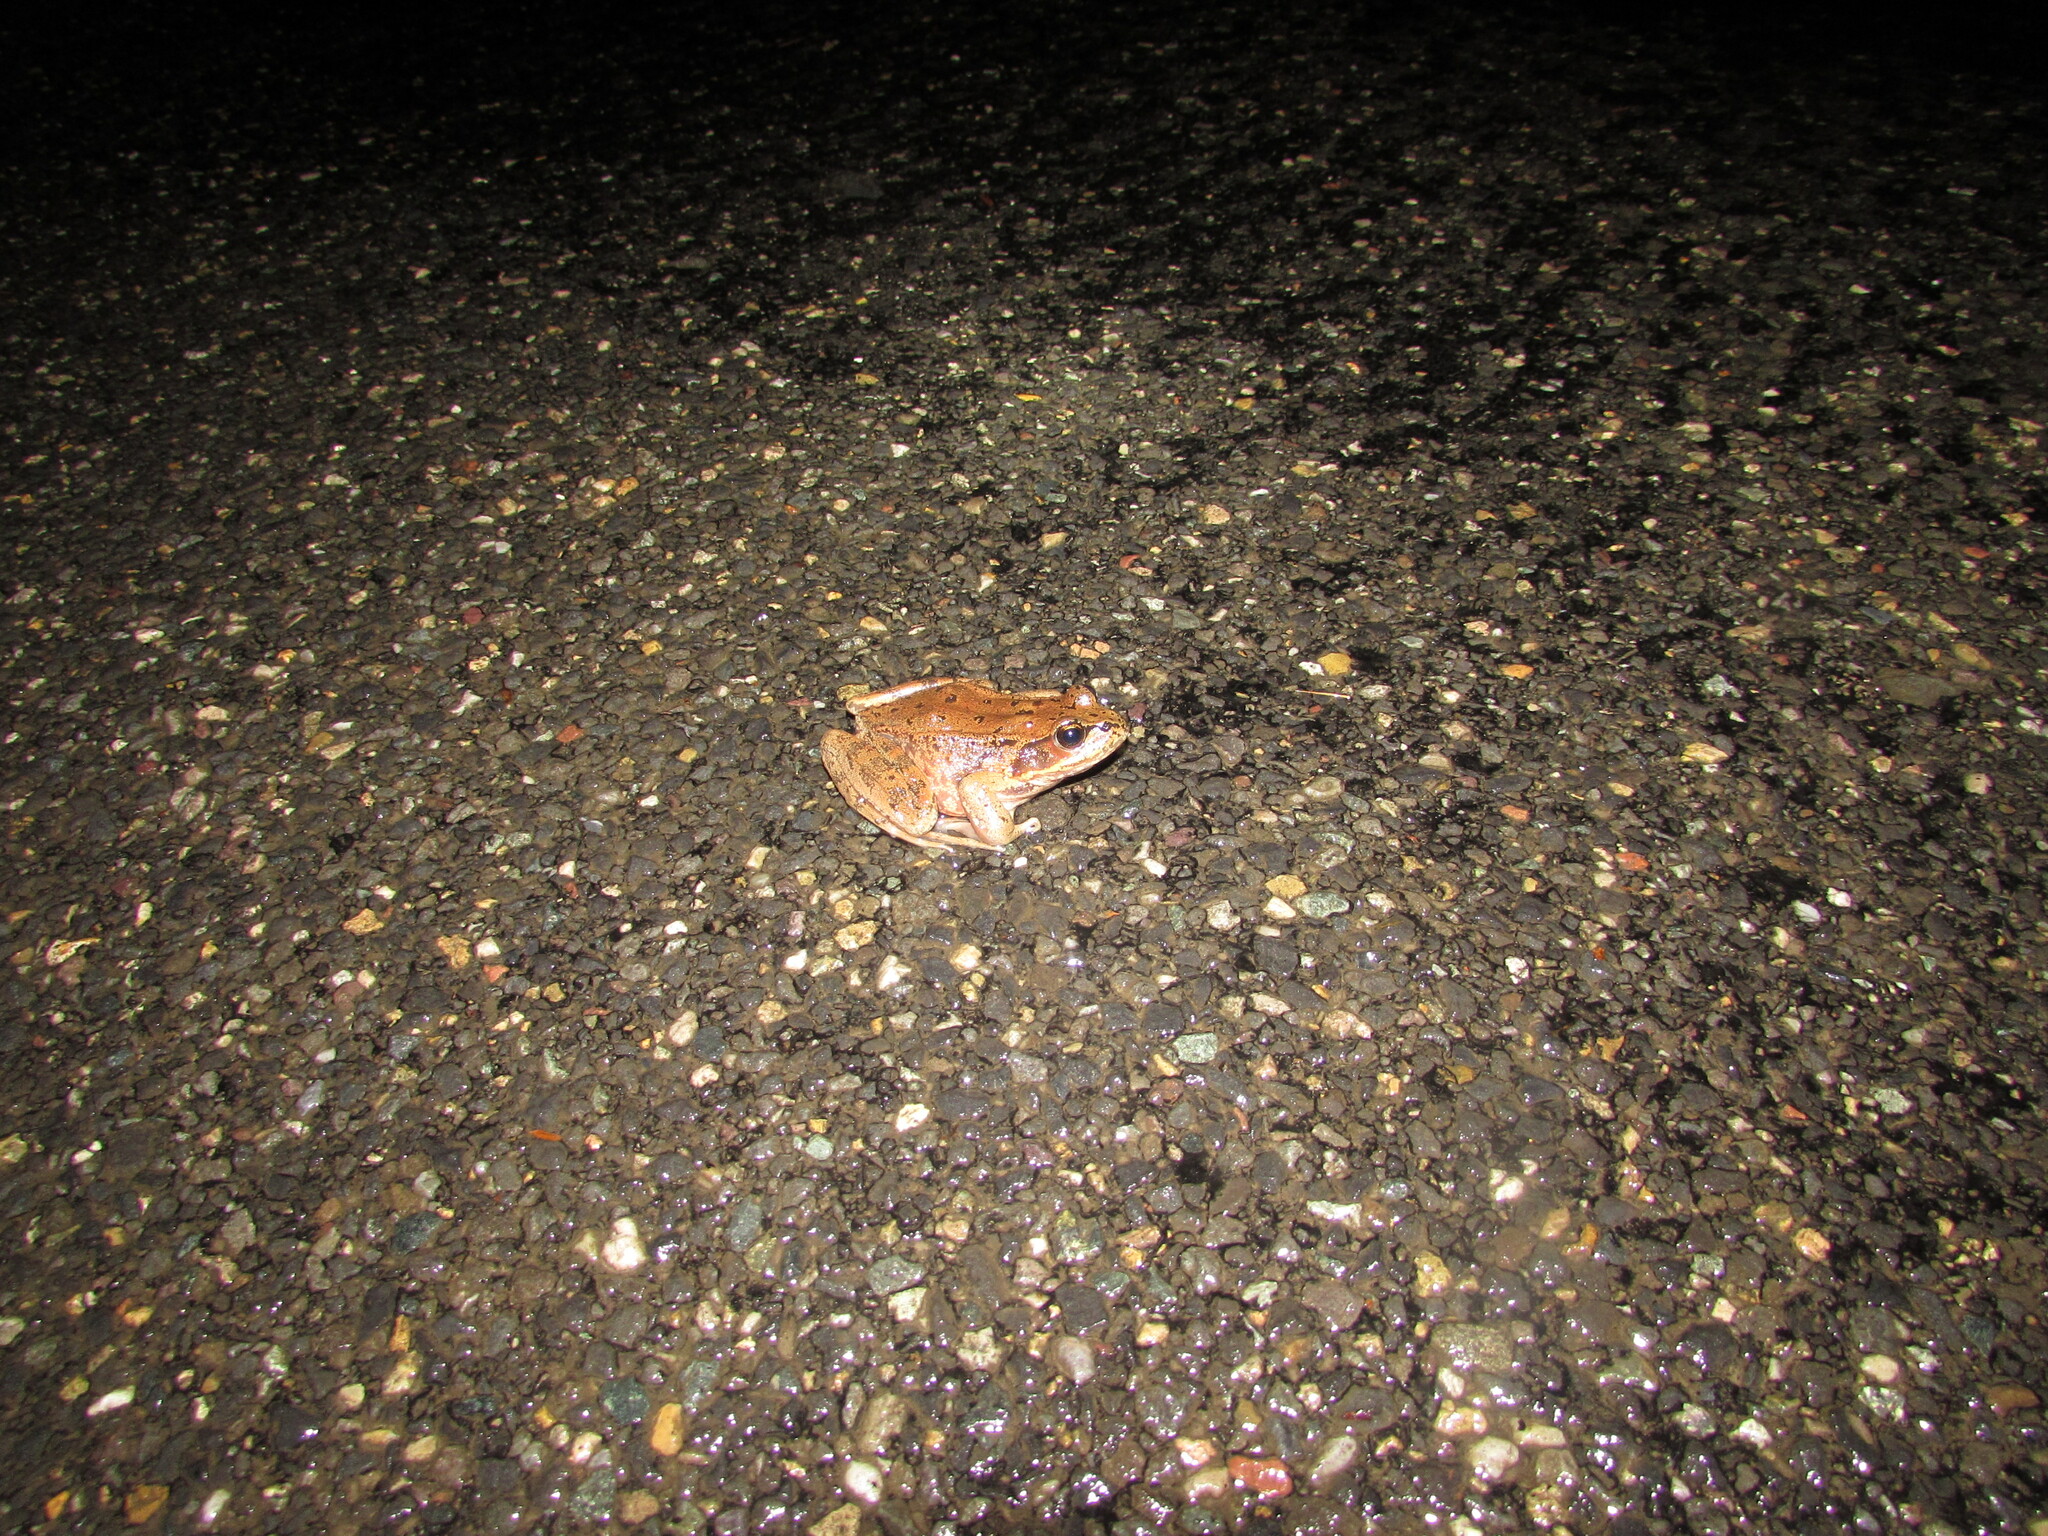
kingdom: Animalia
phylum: Chordata
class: Amphibia
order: Anura
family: Ranidae
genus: Rana
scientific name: Rana aurora
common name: Red-legged frog
